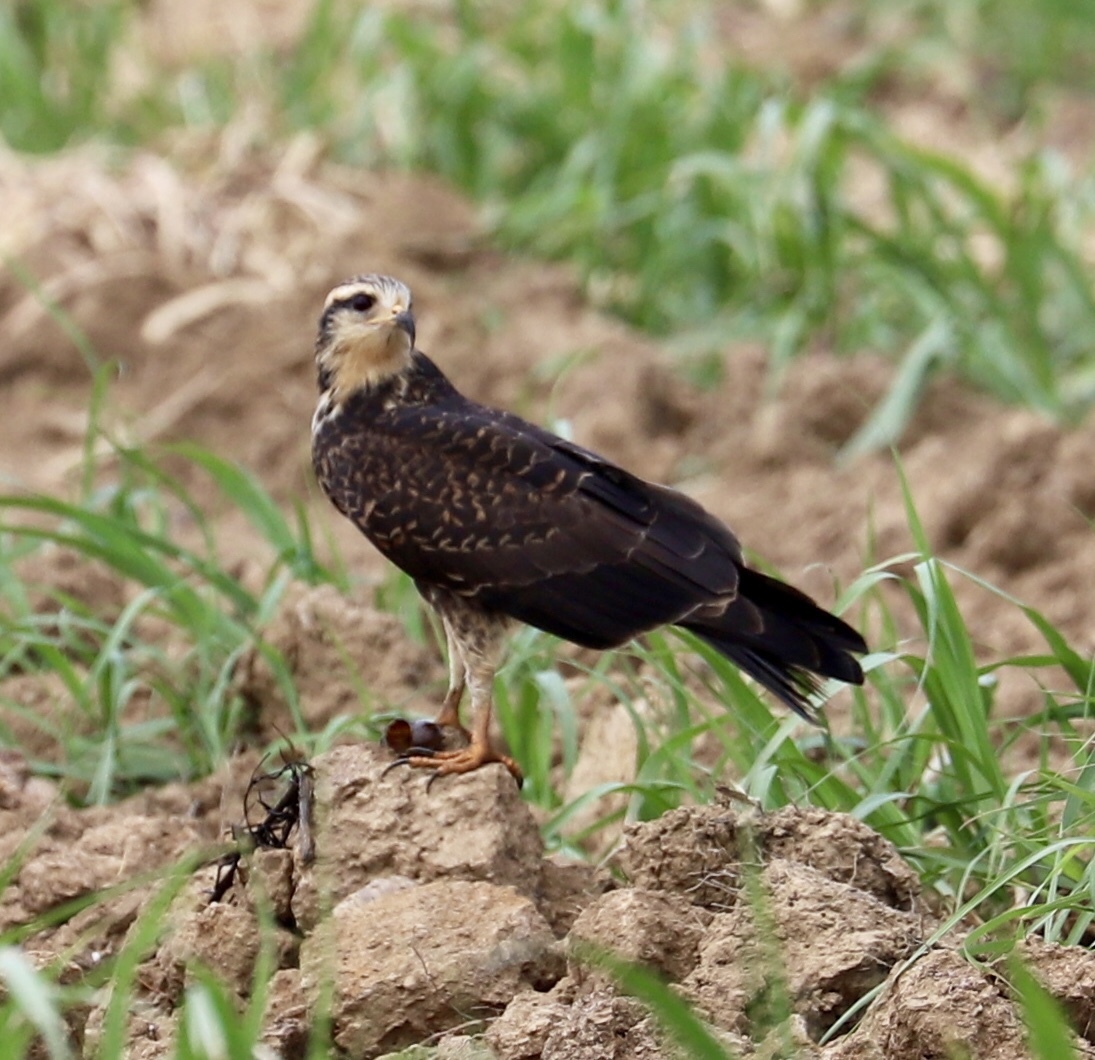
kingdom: Animalia
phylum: Chordata
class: Aves
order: Accipitriformes
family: Accipitridae
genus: Rostrhamus
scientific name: Rostrhamus sociabilis
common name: Snail kite
